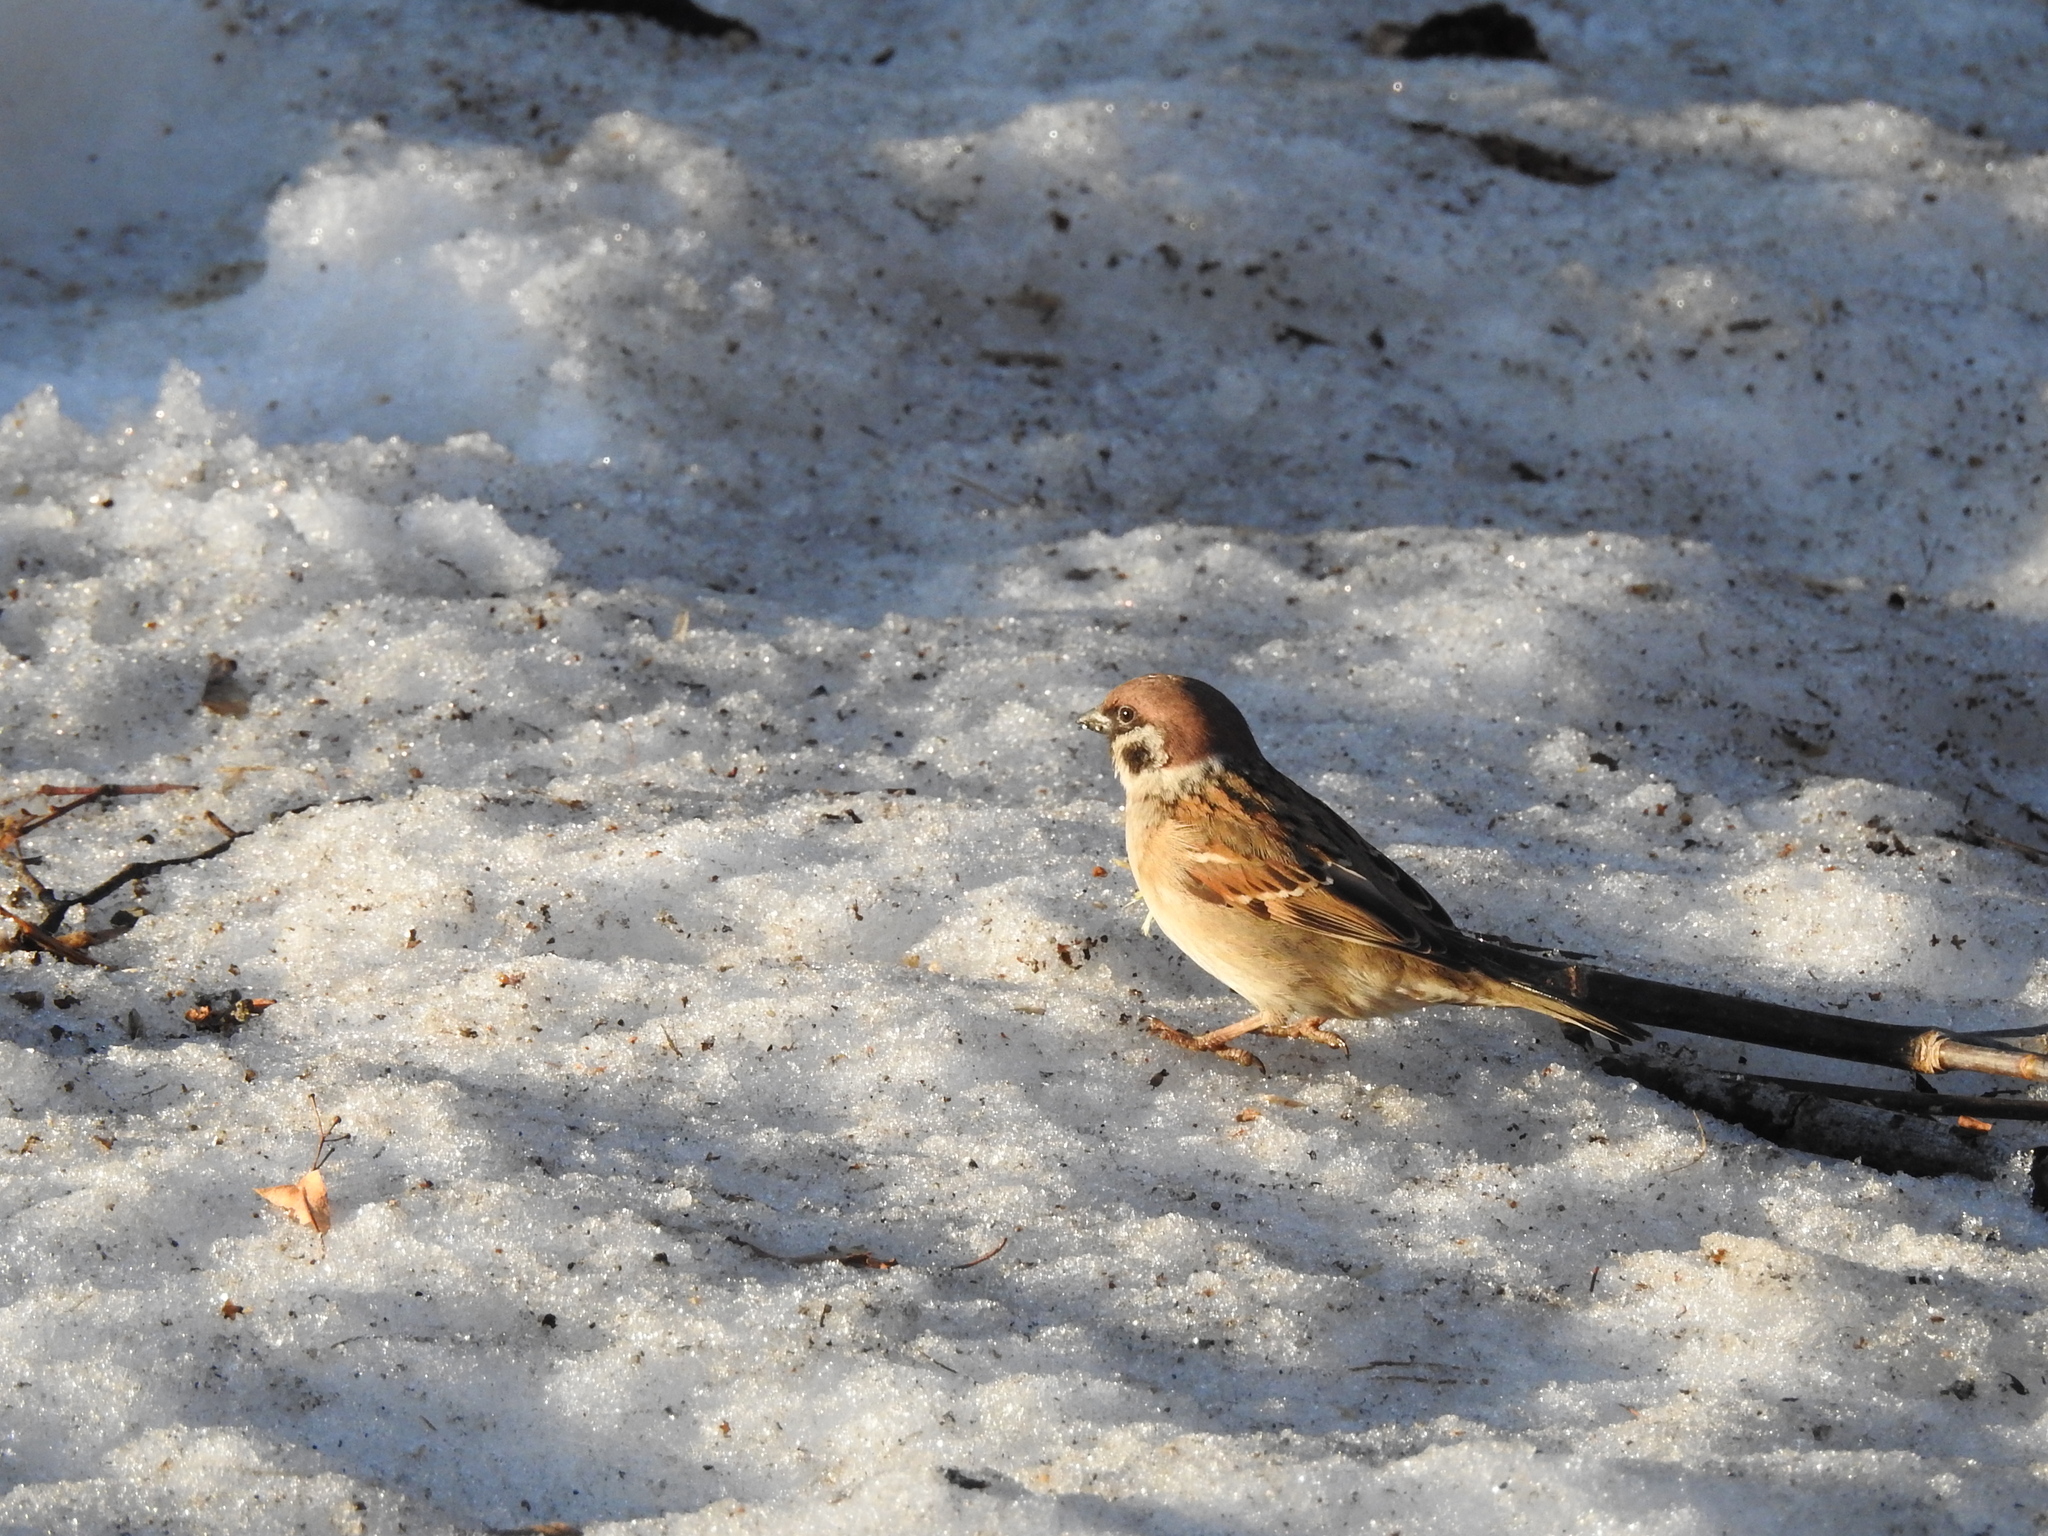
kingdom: Animalia
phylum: Chordata
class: Aves
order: Passeriformes
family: Passeridae
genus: Passer
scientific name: Passer montanus
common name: Eurasian tree sparrow
